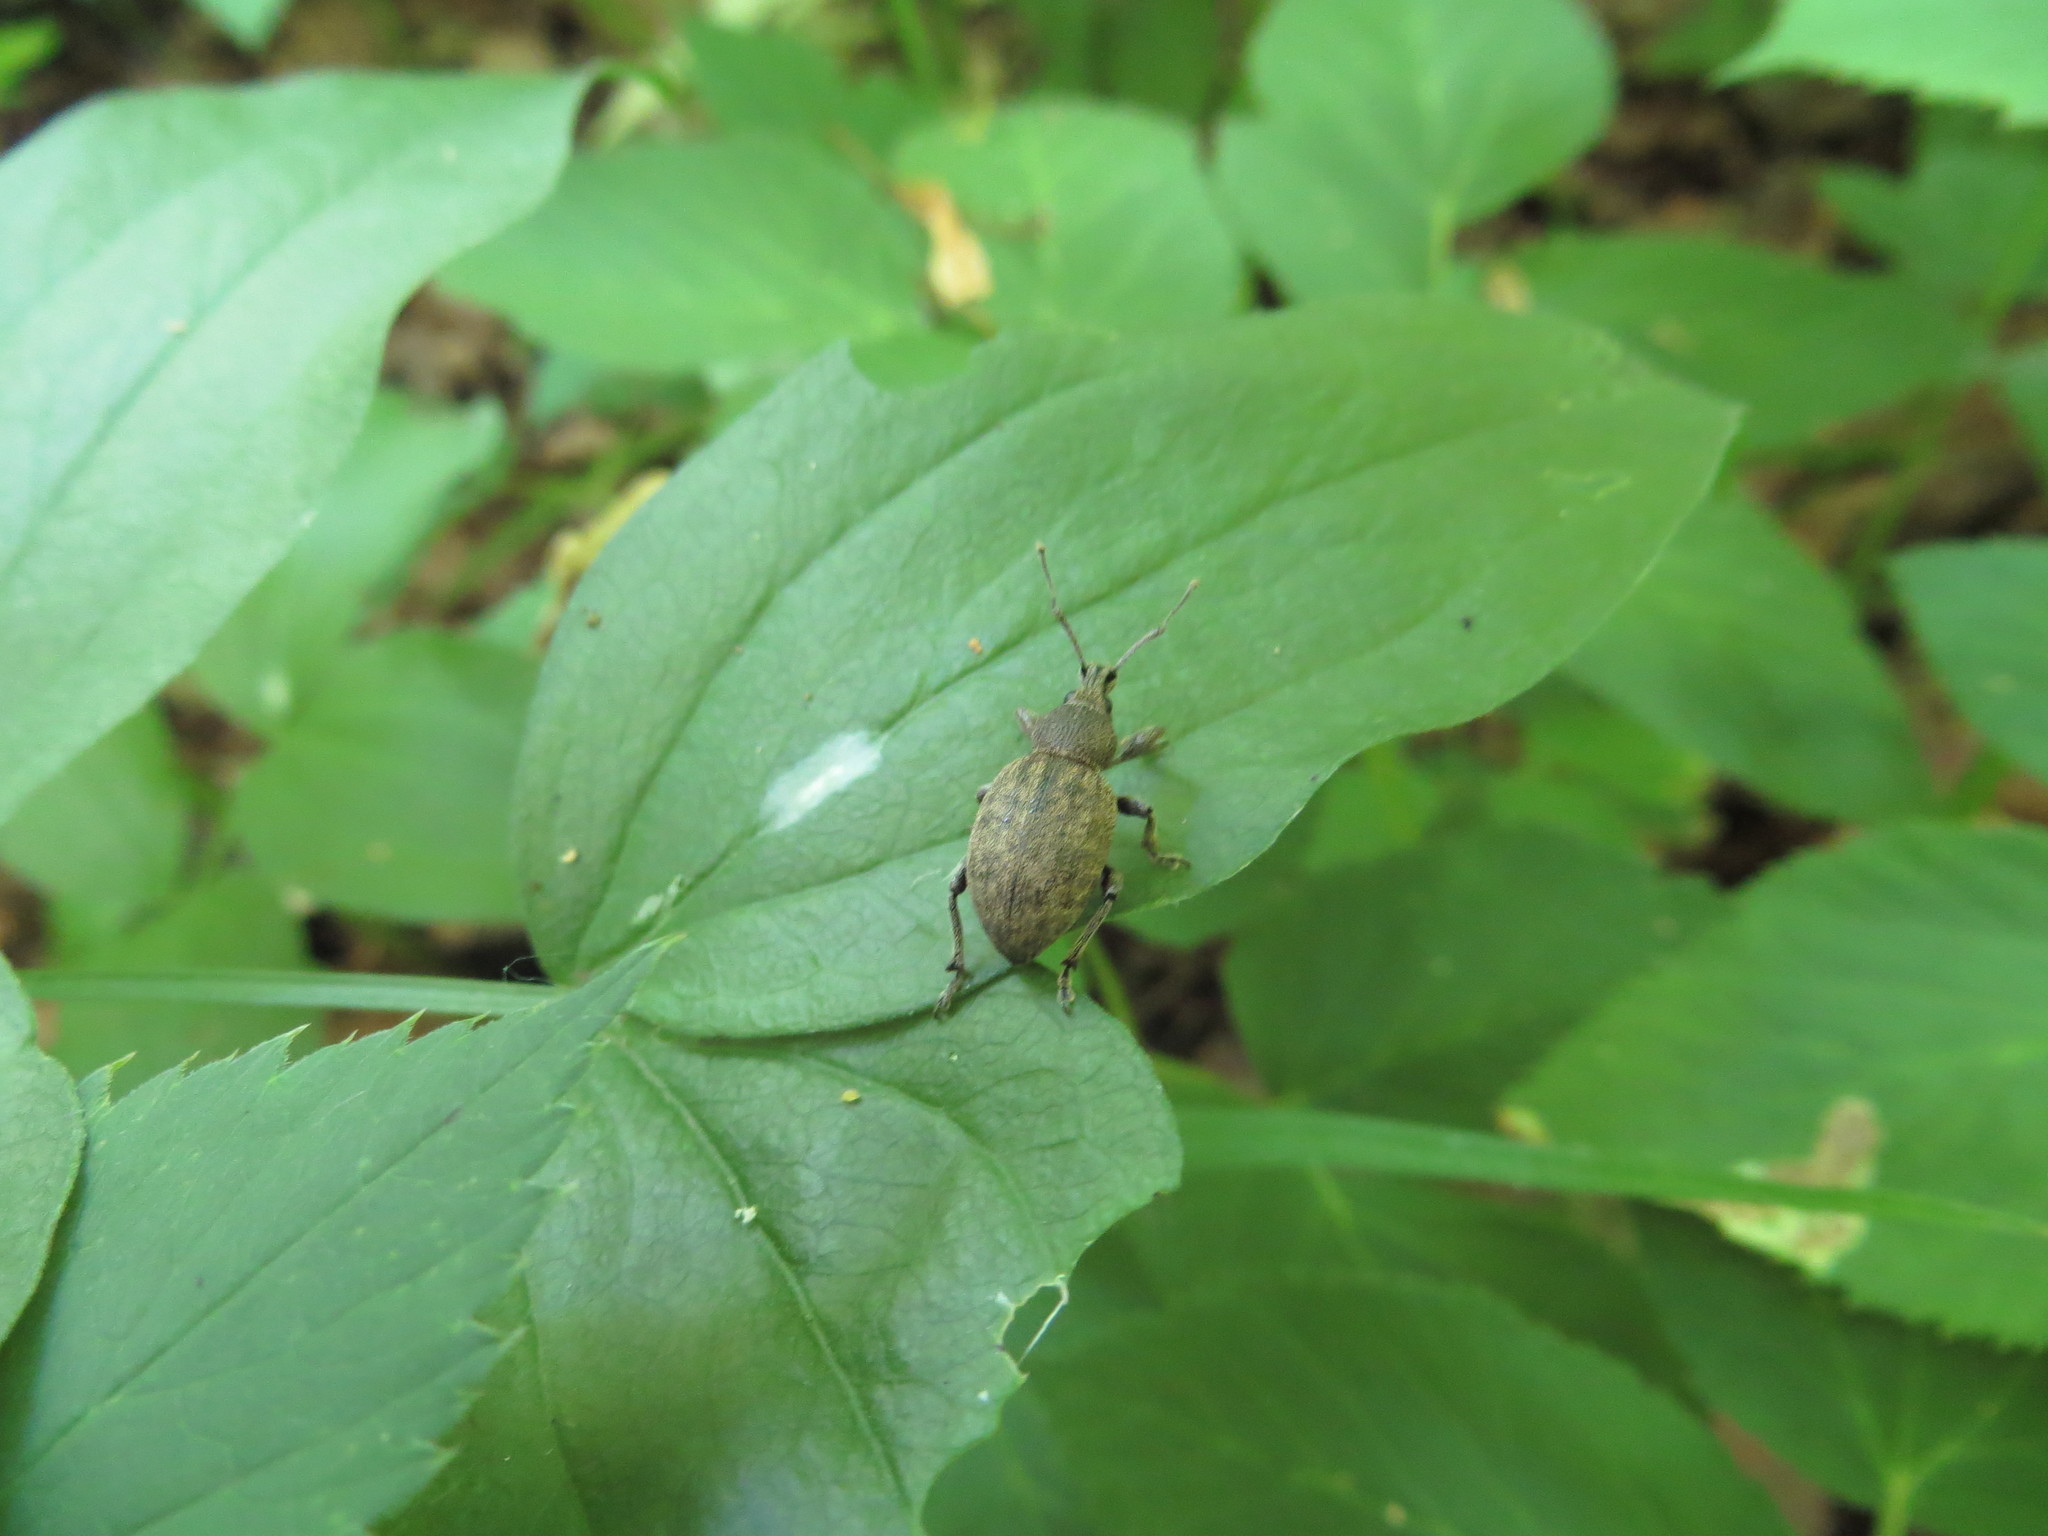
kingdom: Animalia
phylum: Arthropoda
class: Insecta
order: Coleoptera
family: Curculionidae
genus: Otiorhynchus
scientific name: Otiorhynchus ligustici
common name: Weevil
